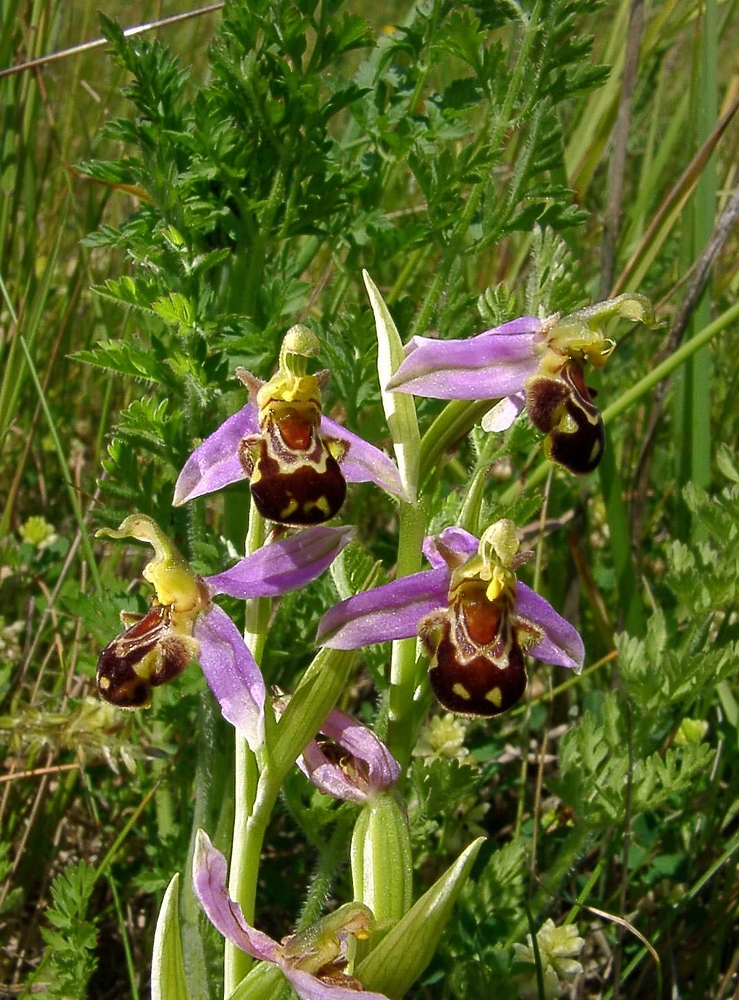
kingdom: Plantae
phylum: Tracheophyta
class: Liliopsida
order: Asparagales
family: Orchidaceae
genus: Ophrys
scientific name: Ophrys apifera
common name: Bee orchid
